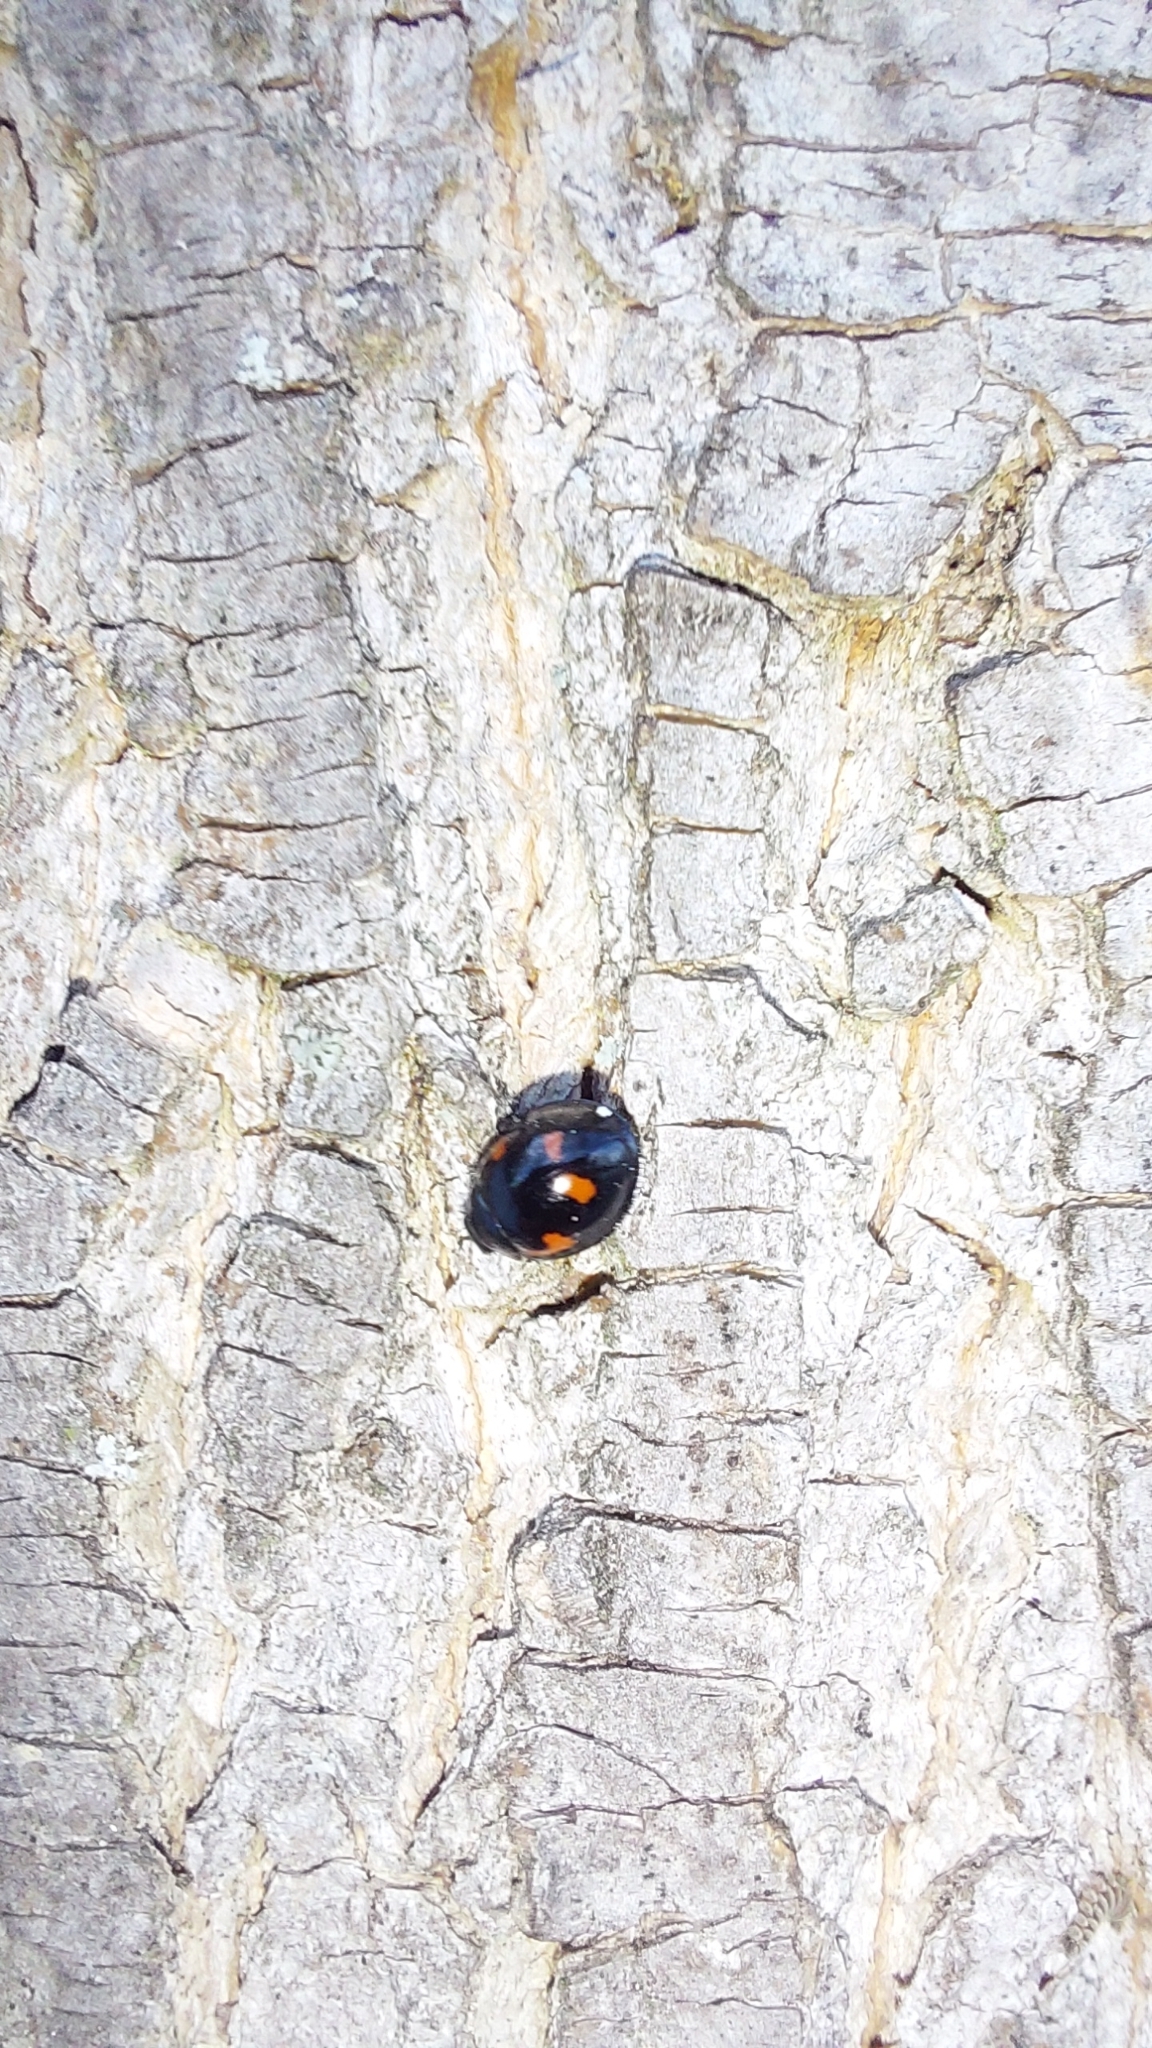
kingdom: Animalia
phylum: Arthropoda
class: Insecta
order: Coleoptera
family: Coccinellidae
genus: Brumus
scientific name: Brumus quadripustulatus
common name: Ladybird beetle
